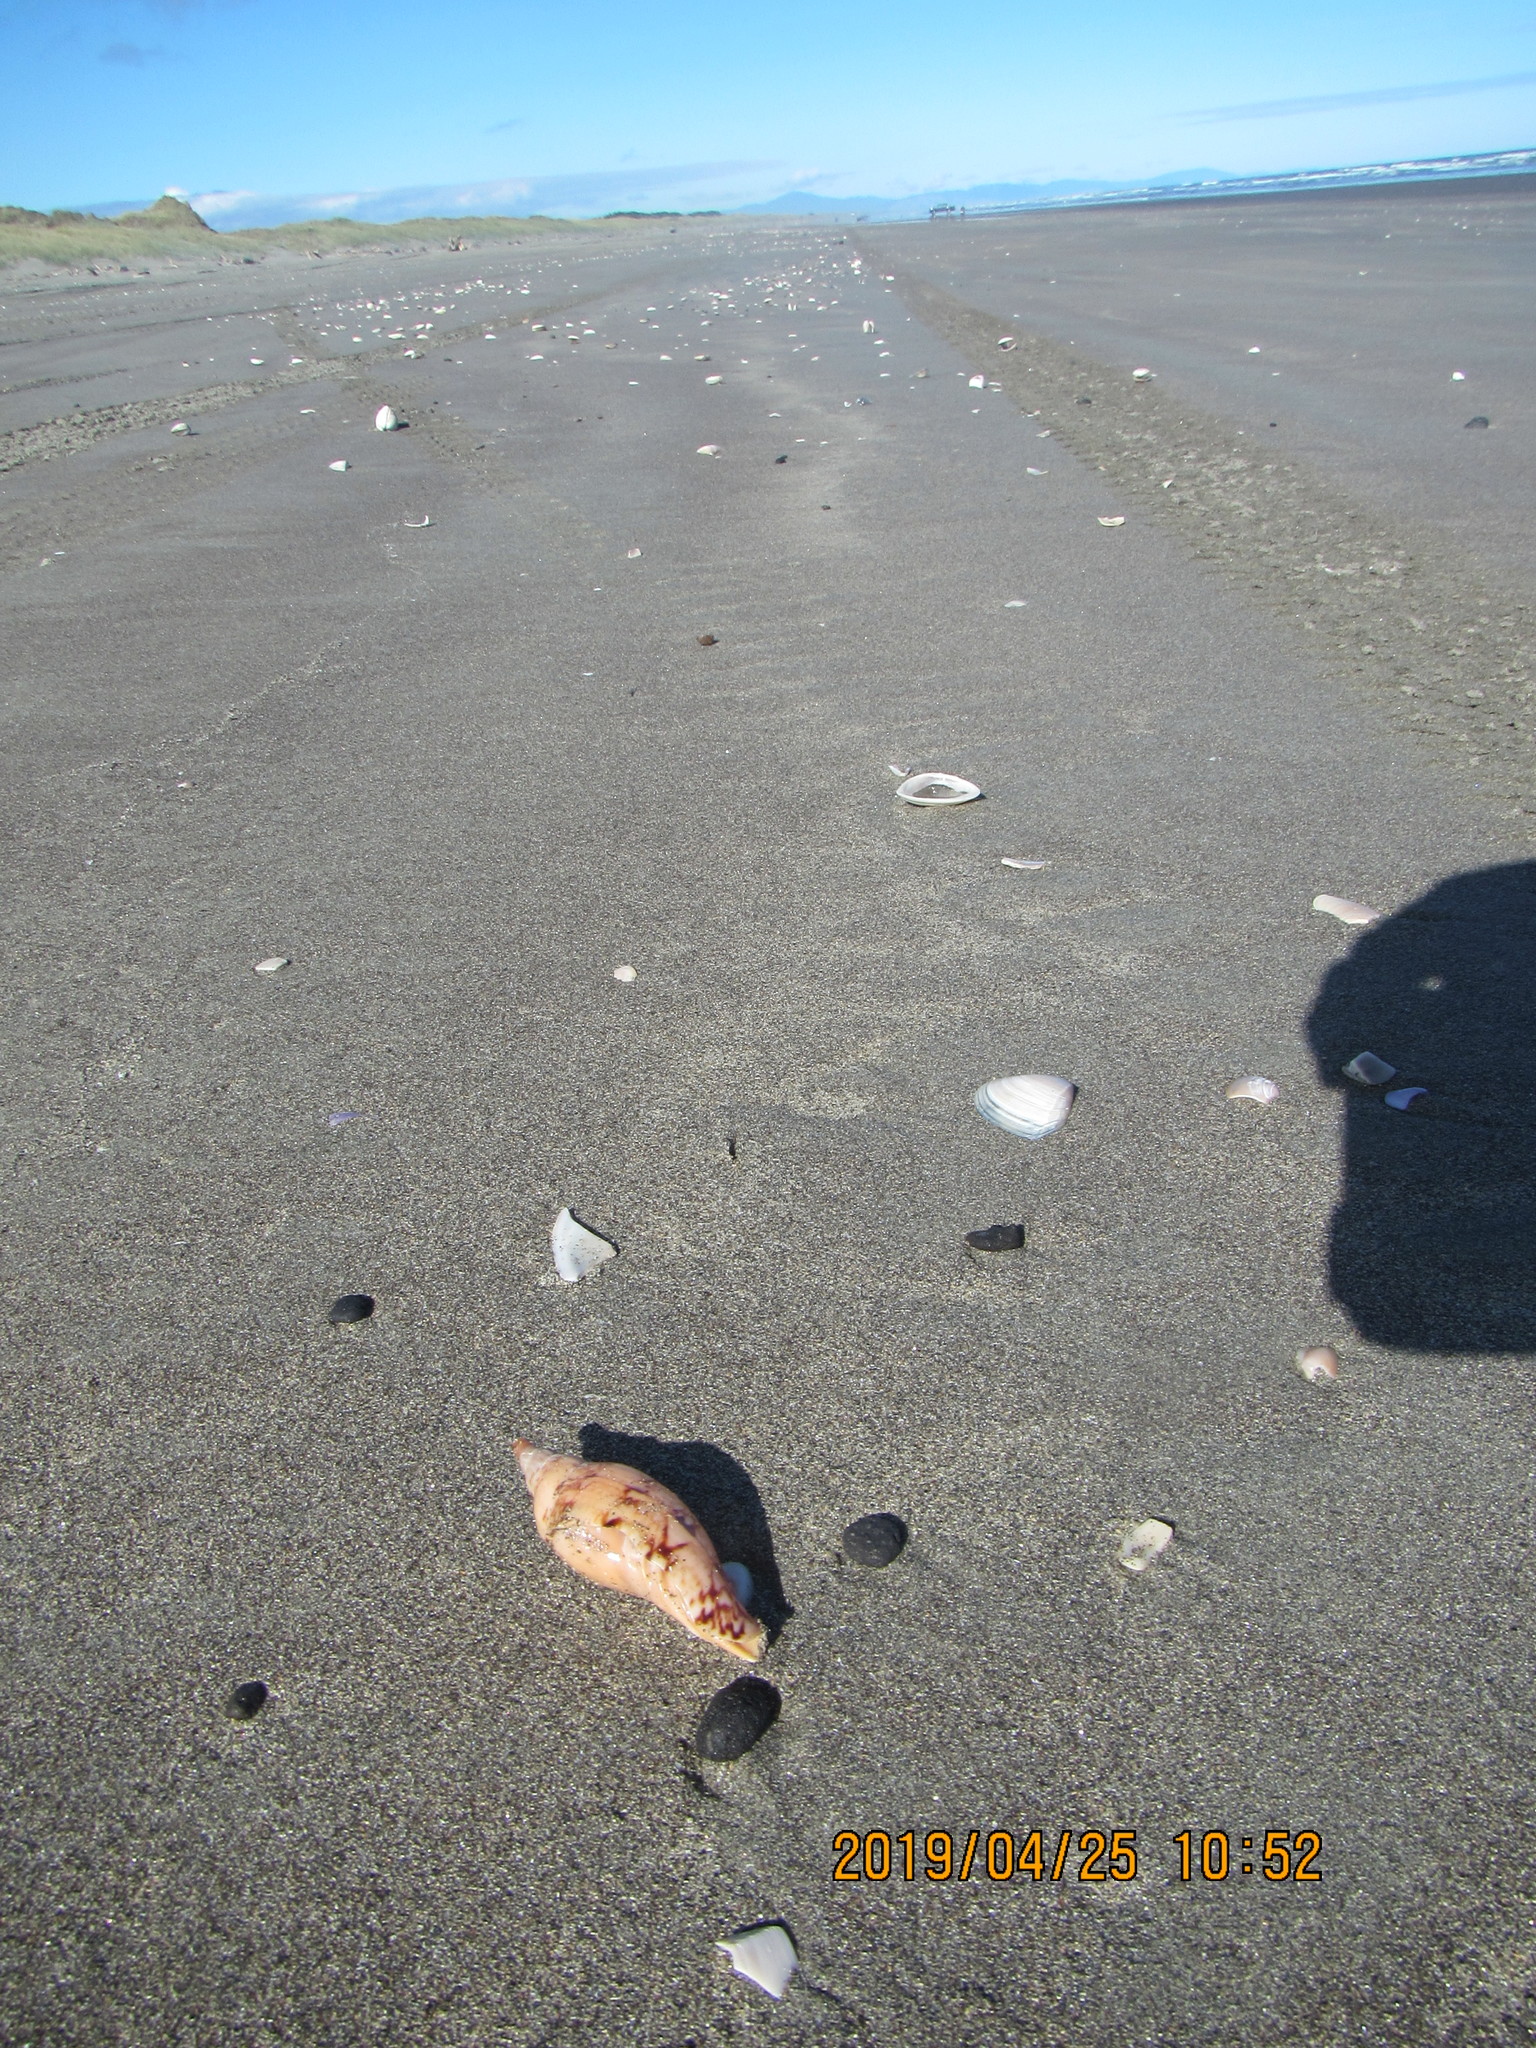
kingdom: Animalia
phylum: Mollusca
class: Gastropoda
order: Neogastropoda
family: Volutidae
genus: Alcithoe
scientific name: Alcithoe arabica
